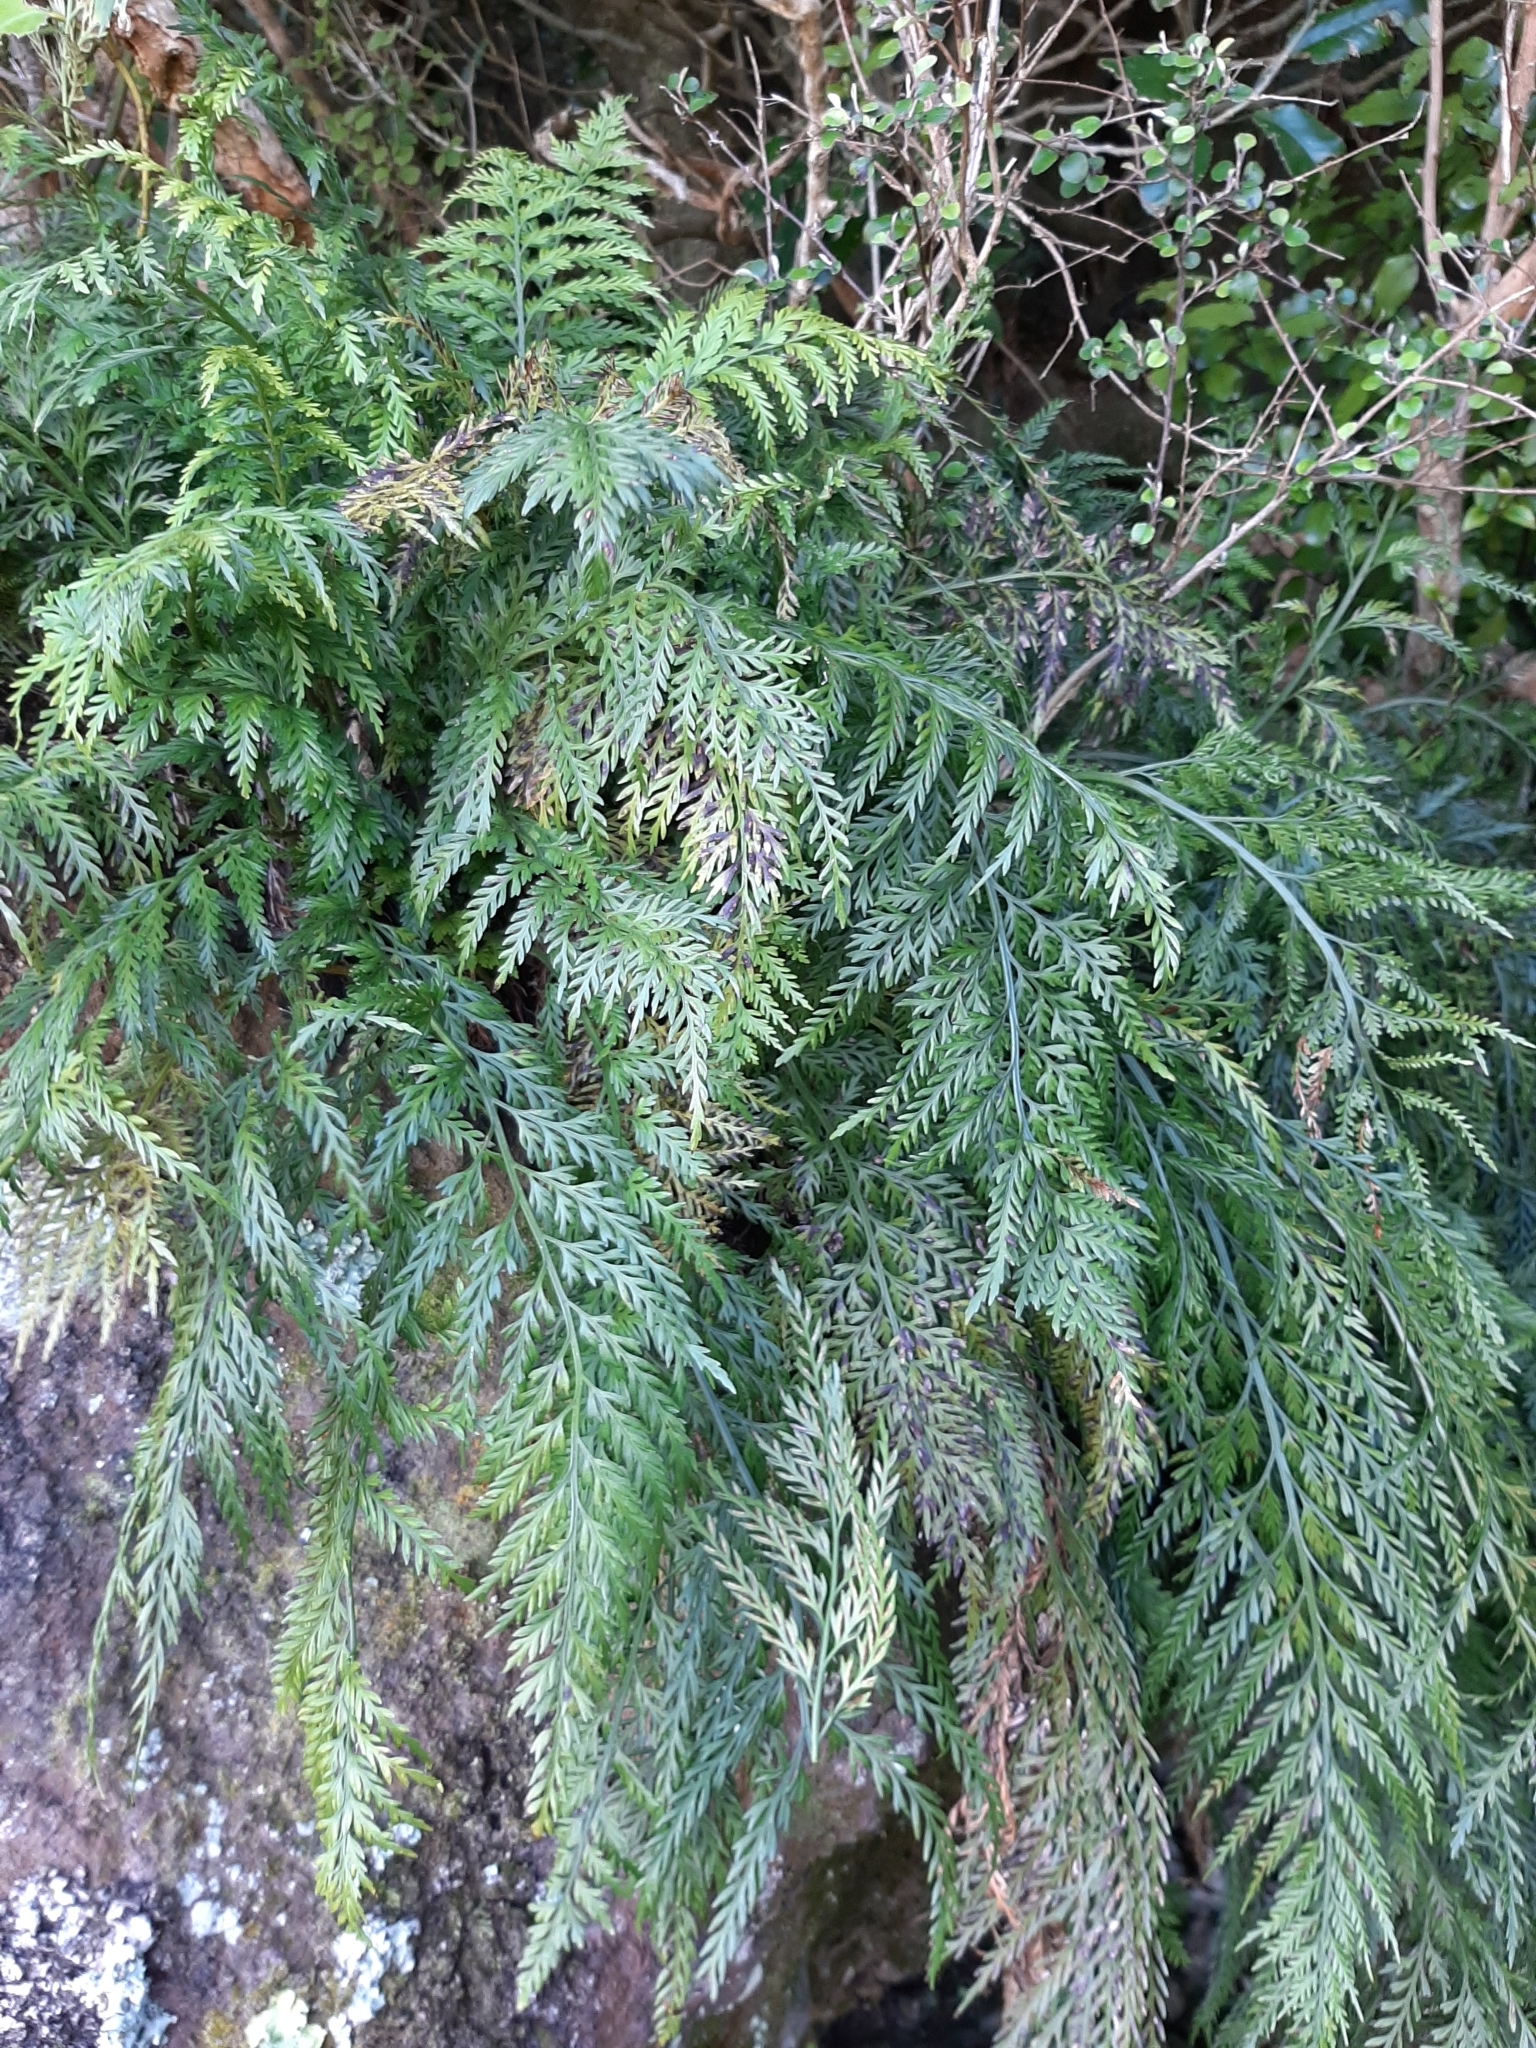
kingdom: Plantae
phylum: Tracheophyta
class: Polypodiopsida
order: Polypodiales
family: Aspleniaceae
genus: Asplenium
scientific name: Asplenium appendiculatum
